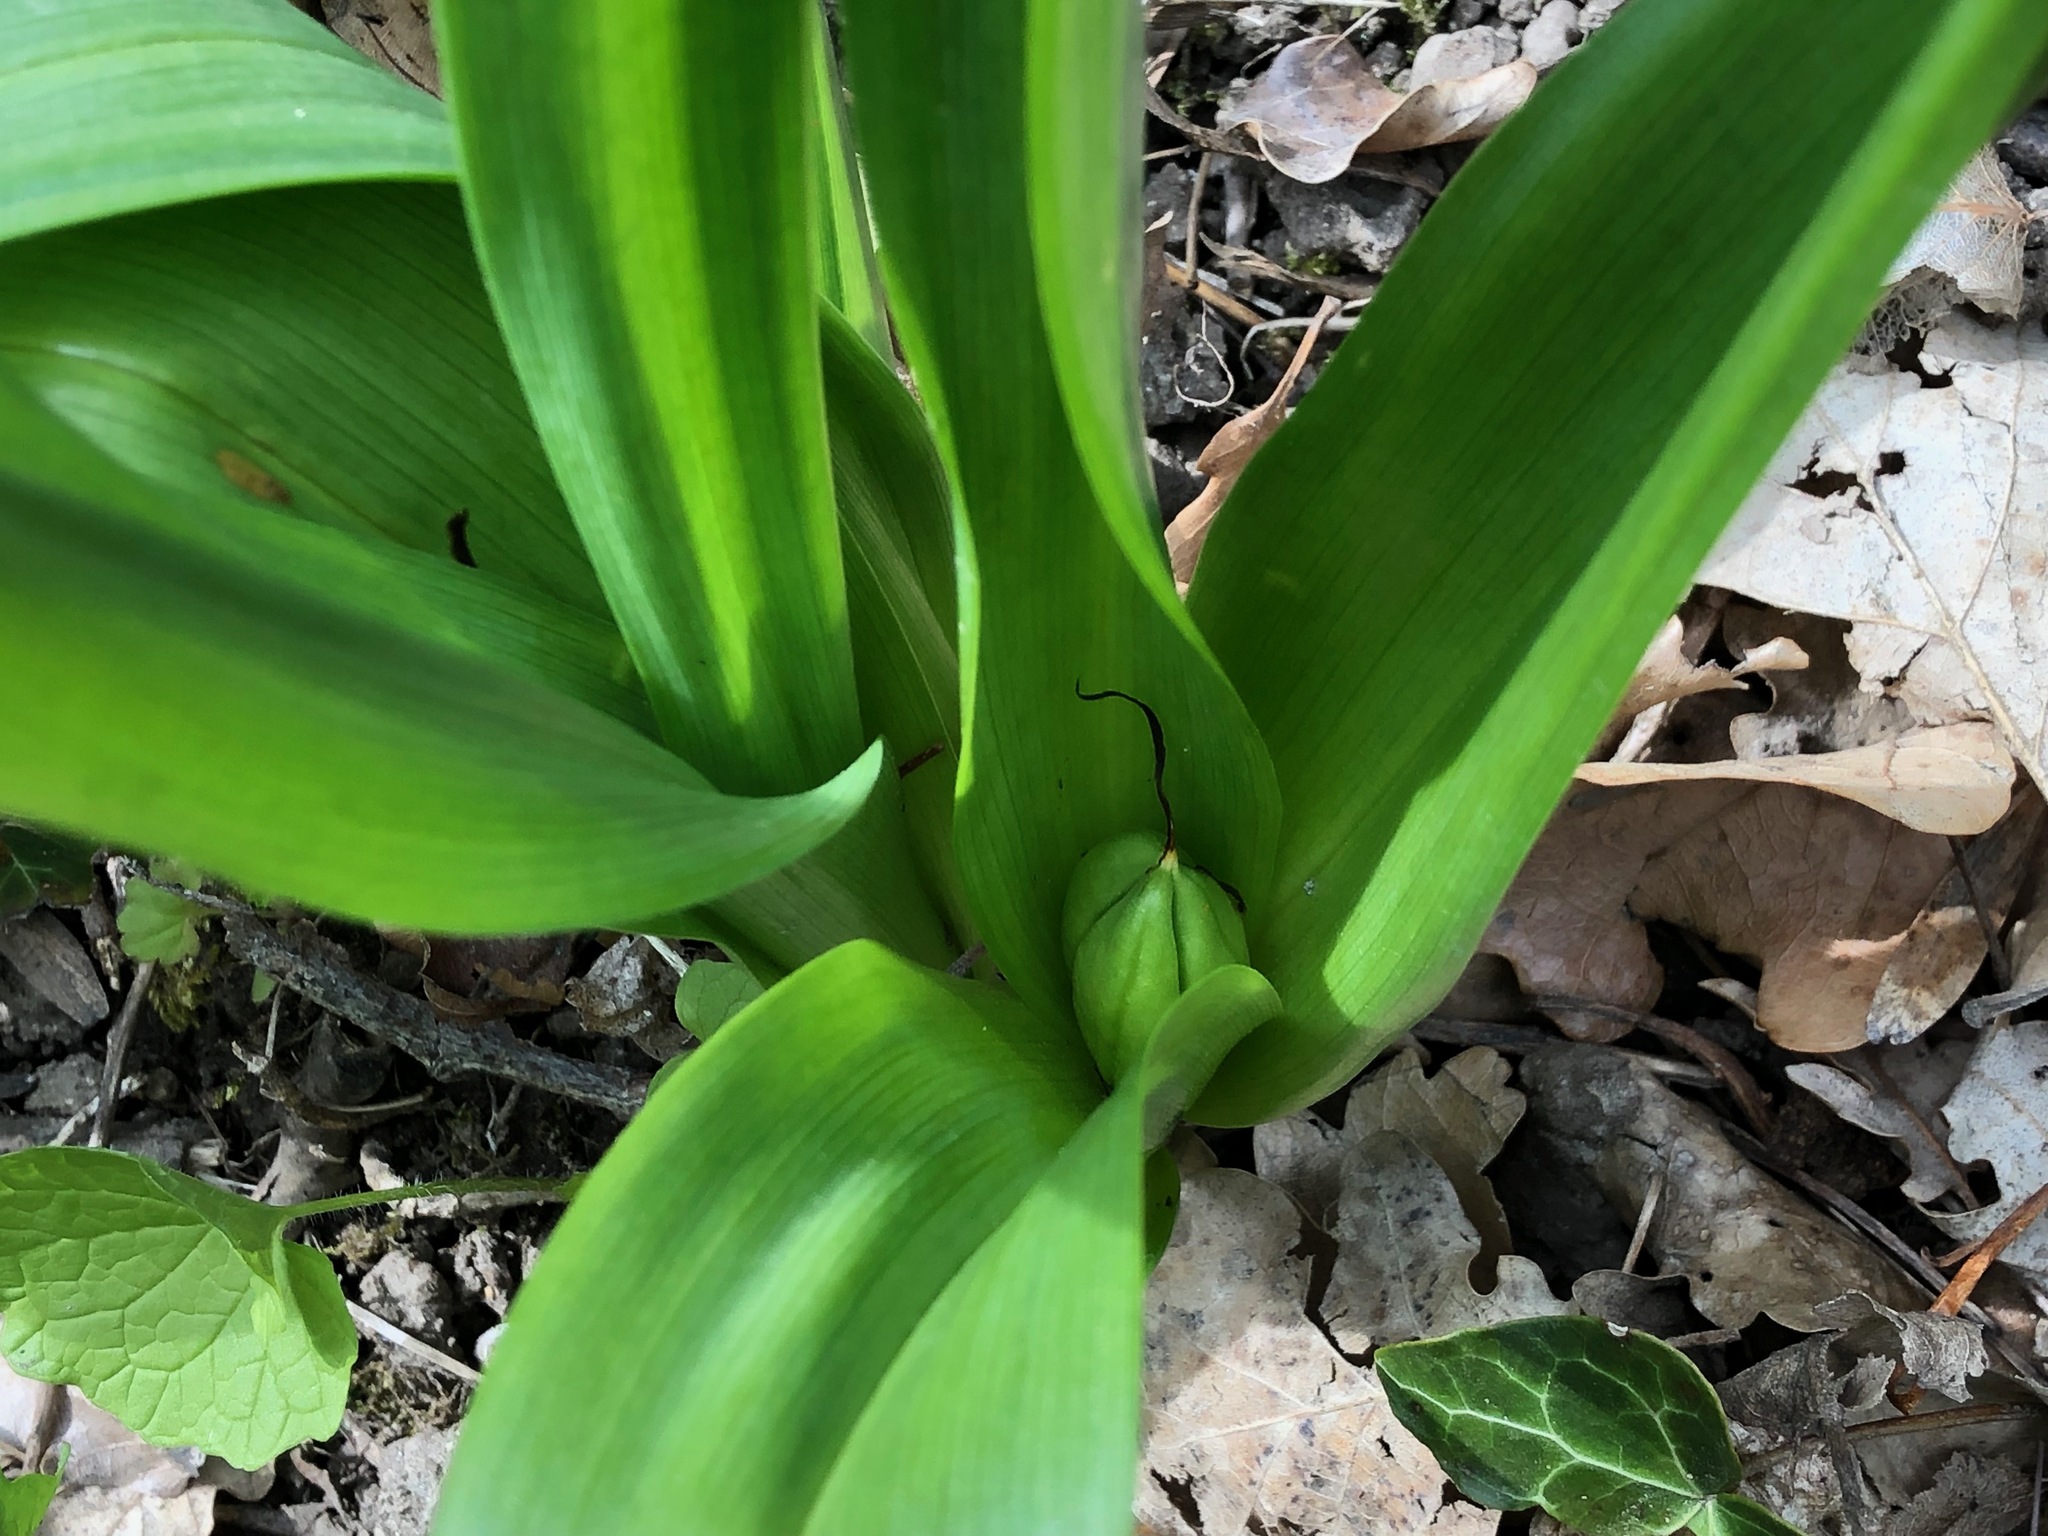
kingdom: Plantae
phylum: Tracheophyta
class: Liliopsida
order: Liliales
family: Colchicaceae
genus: Colchicum
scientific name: Colchicum autumnale
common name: Autumn crocus
